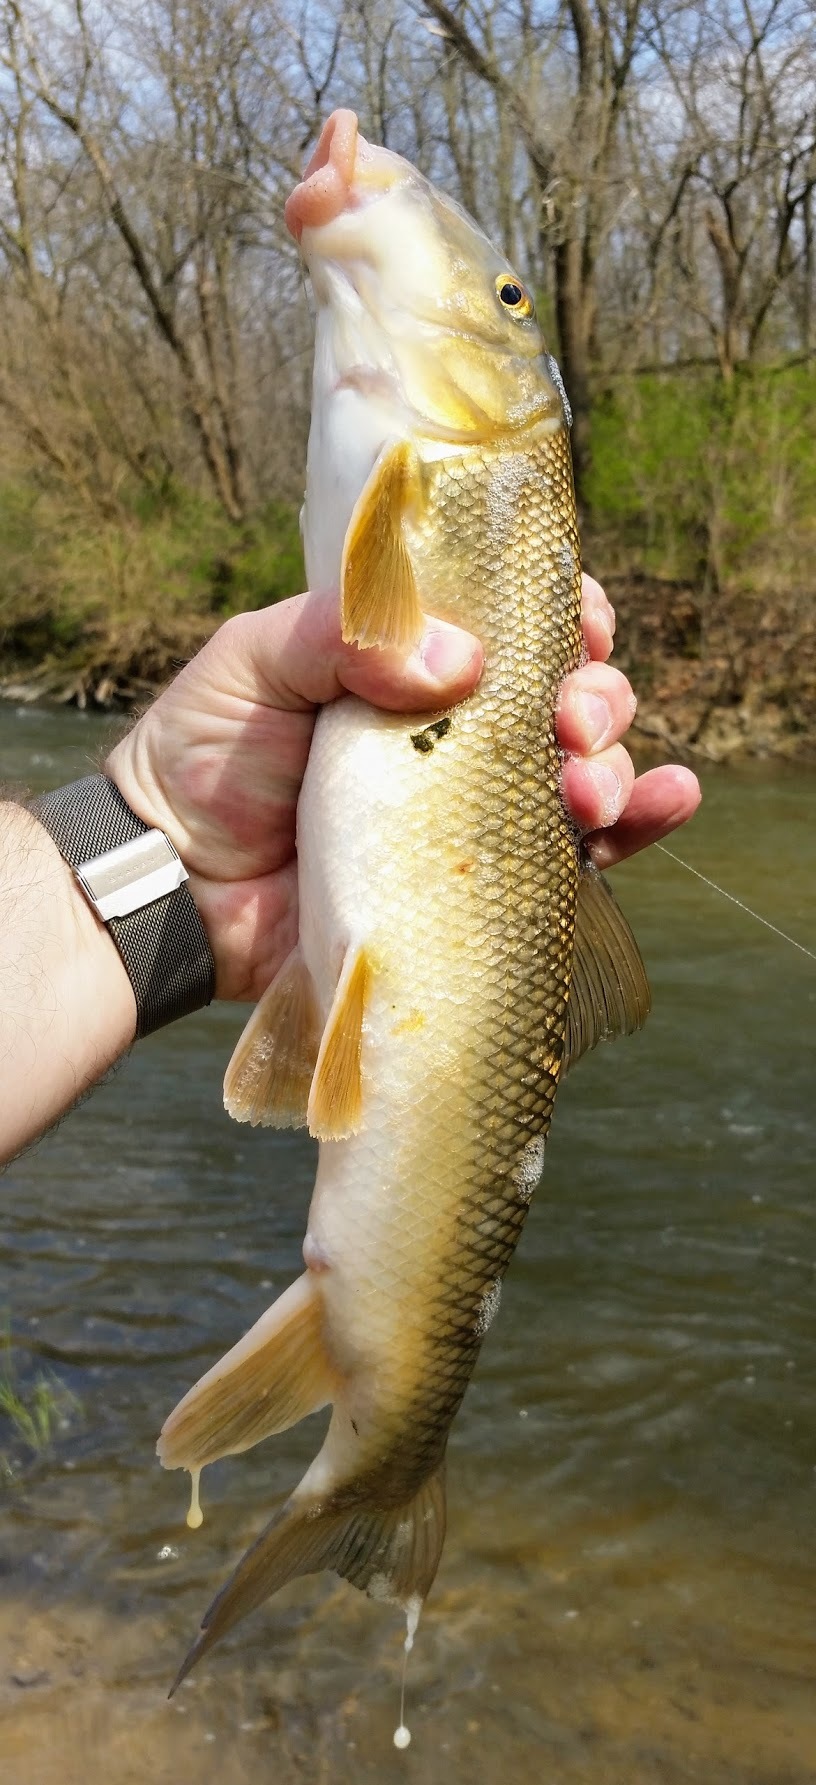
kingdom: Animalia
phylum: Chordata
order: Cypriniformes
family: Catostomidae
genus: Catostomus
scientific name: Catostomus commersonii
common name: White sucker
